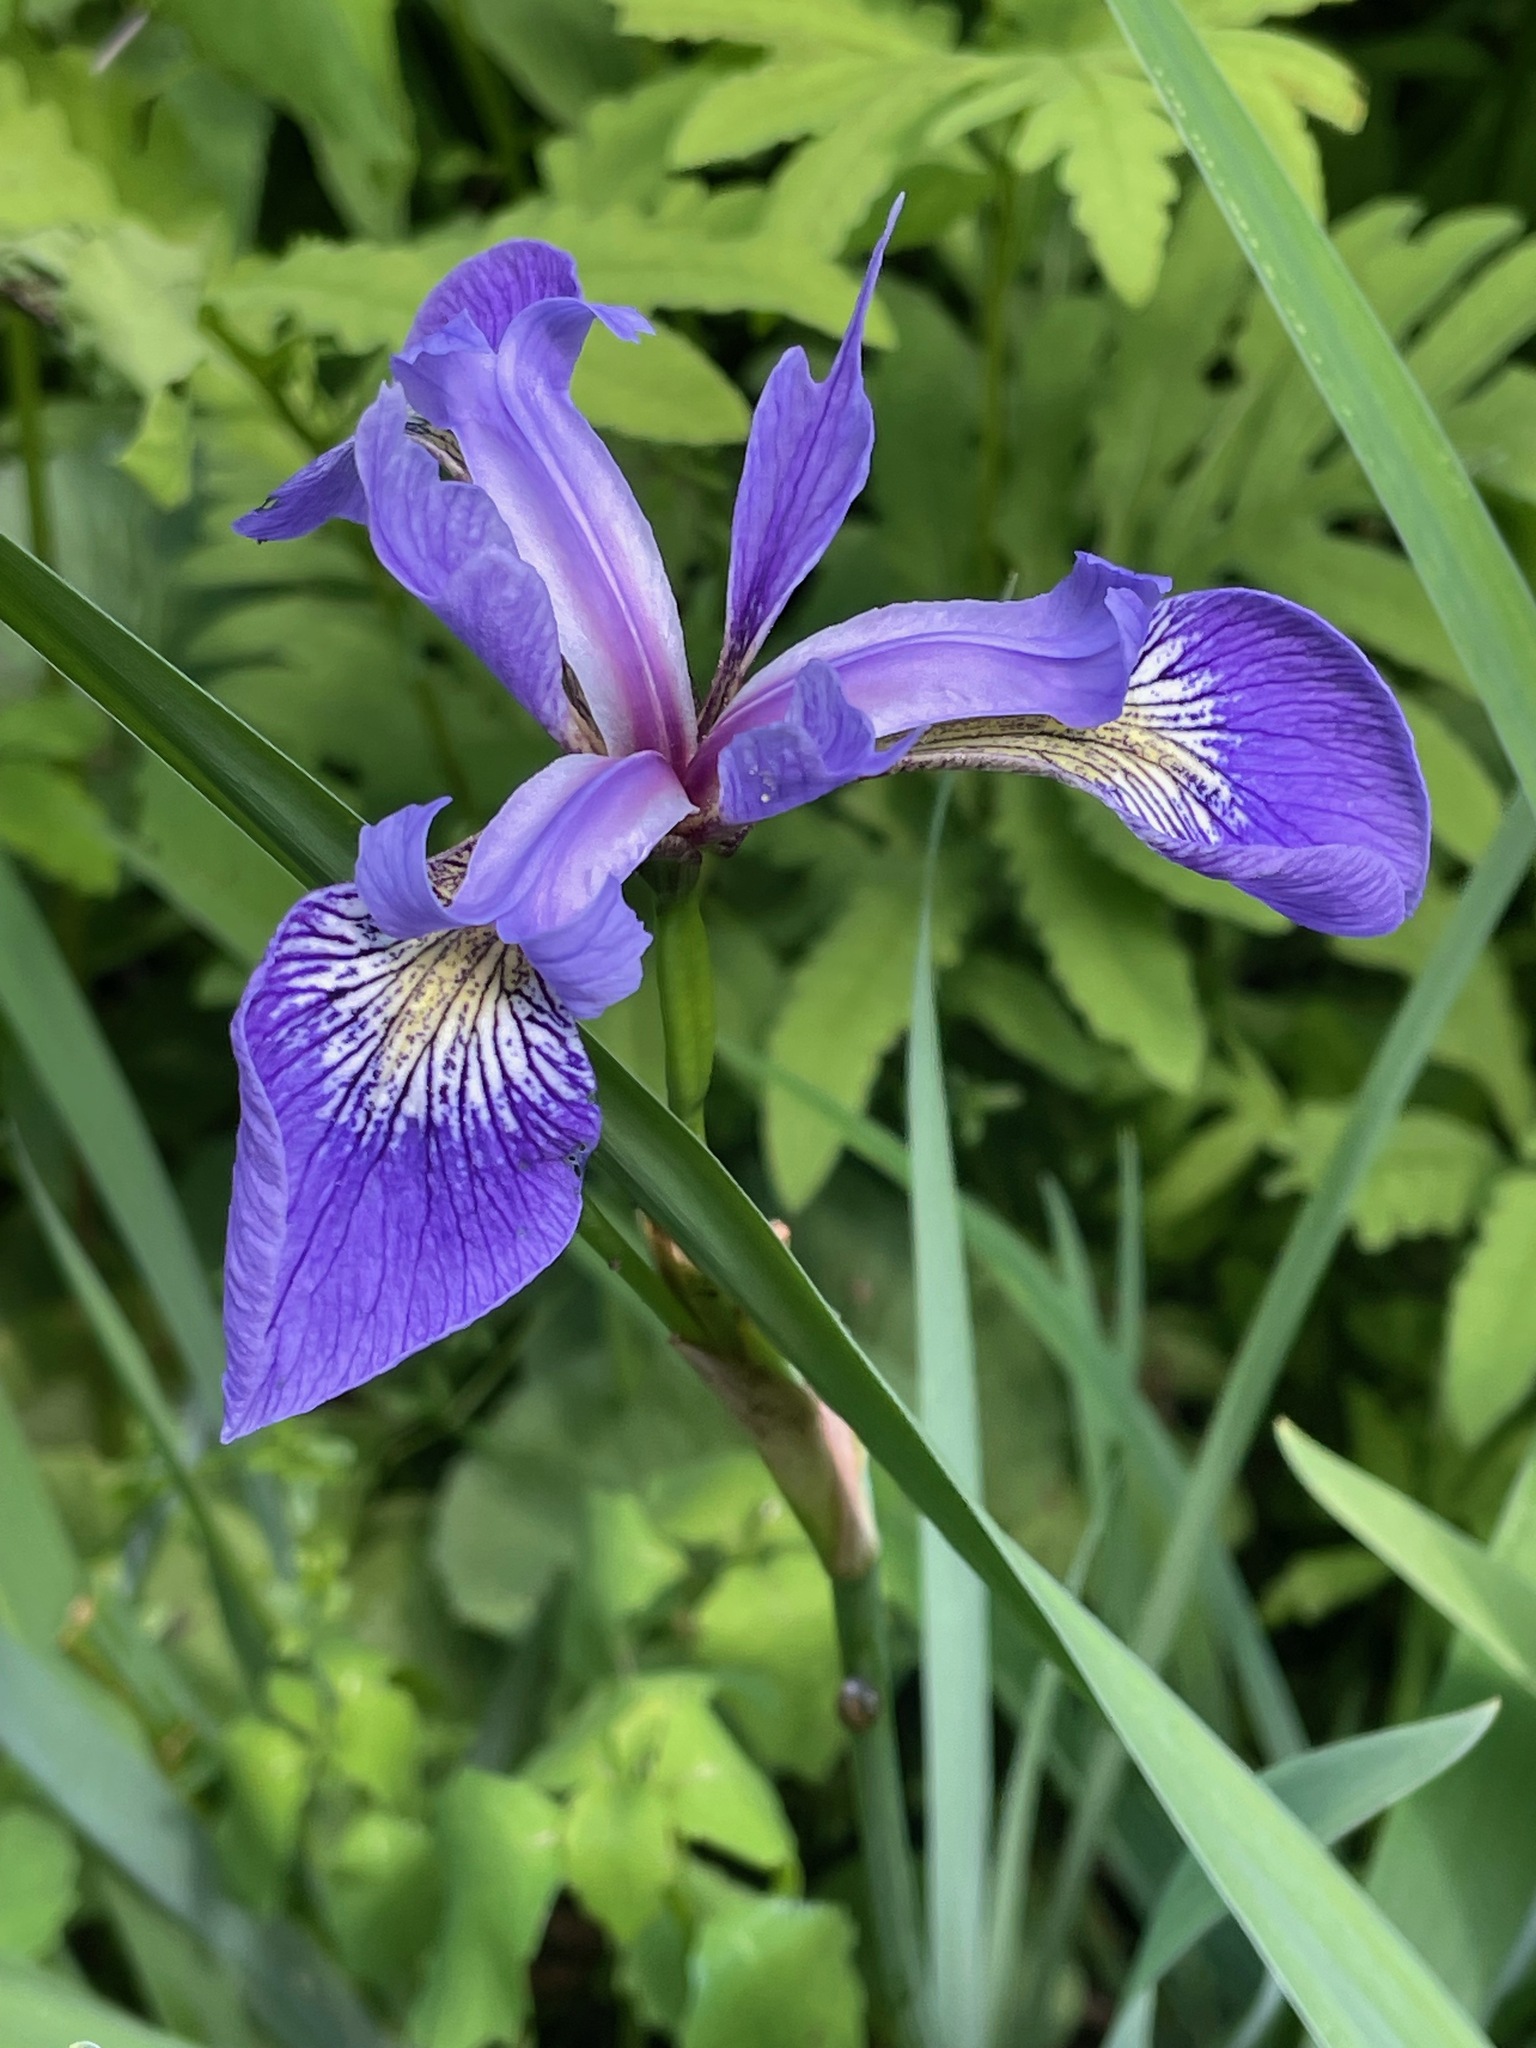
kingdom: Plantae
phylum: Tracheophyta
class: Liliopsida
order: Asparagales
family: Iridaceae
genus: Iris
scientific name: Iris versicolor
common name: Purple iris
